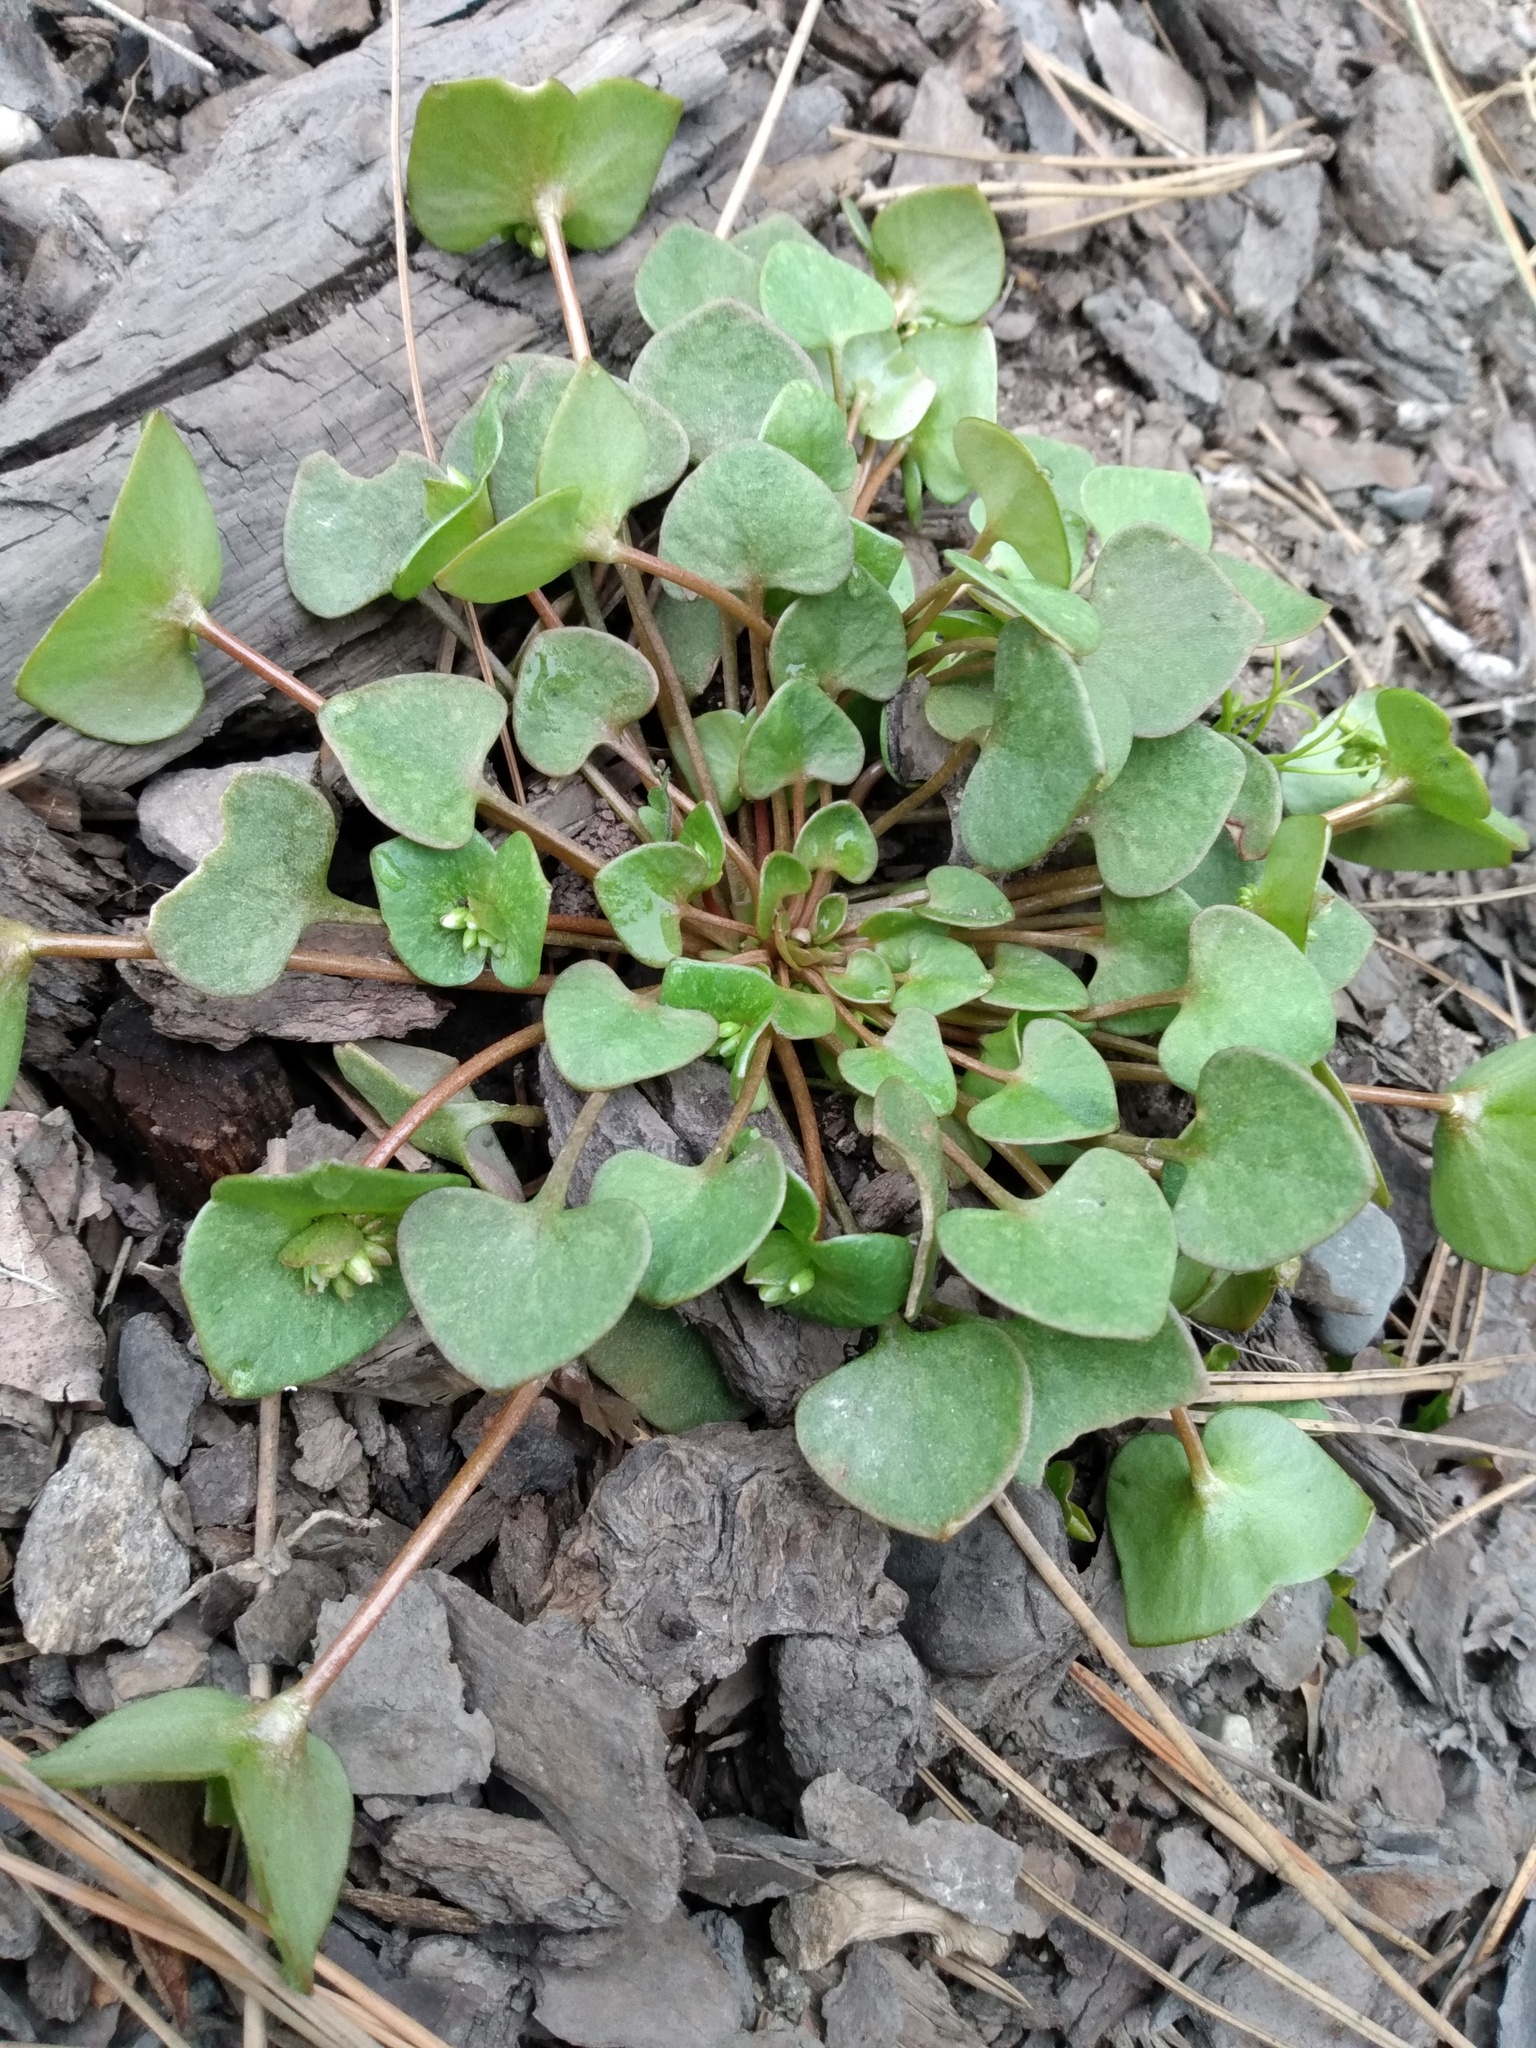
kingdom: Plantae
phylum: Tracheophyta
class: Magnoliopsida
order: Caryophyllales
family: Montiaceae
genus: Claytonia
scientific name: Claytonia rubra
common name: Erubescent miner's-lettuce
